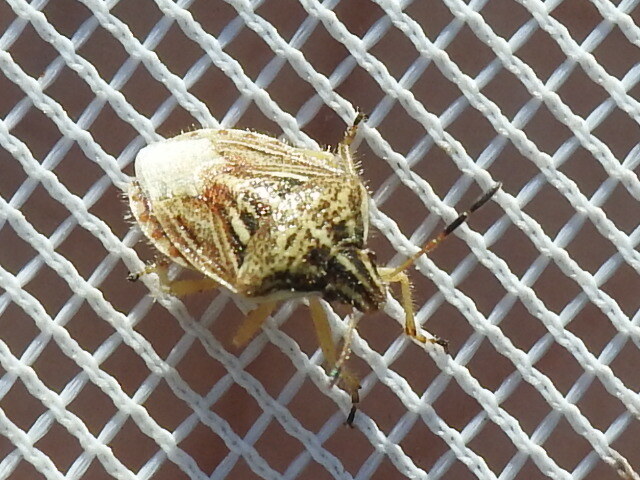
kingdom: Animalia
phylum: Arthropoda
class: Insecta
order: Hemiptera
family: Pentatomidae
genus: Trichopepla
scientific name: Trichopepla semivittata
